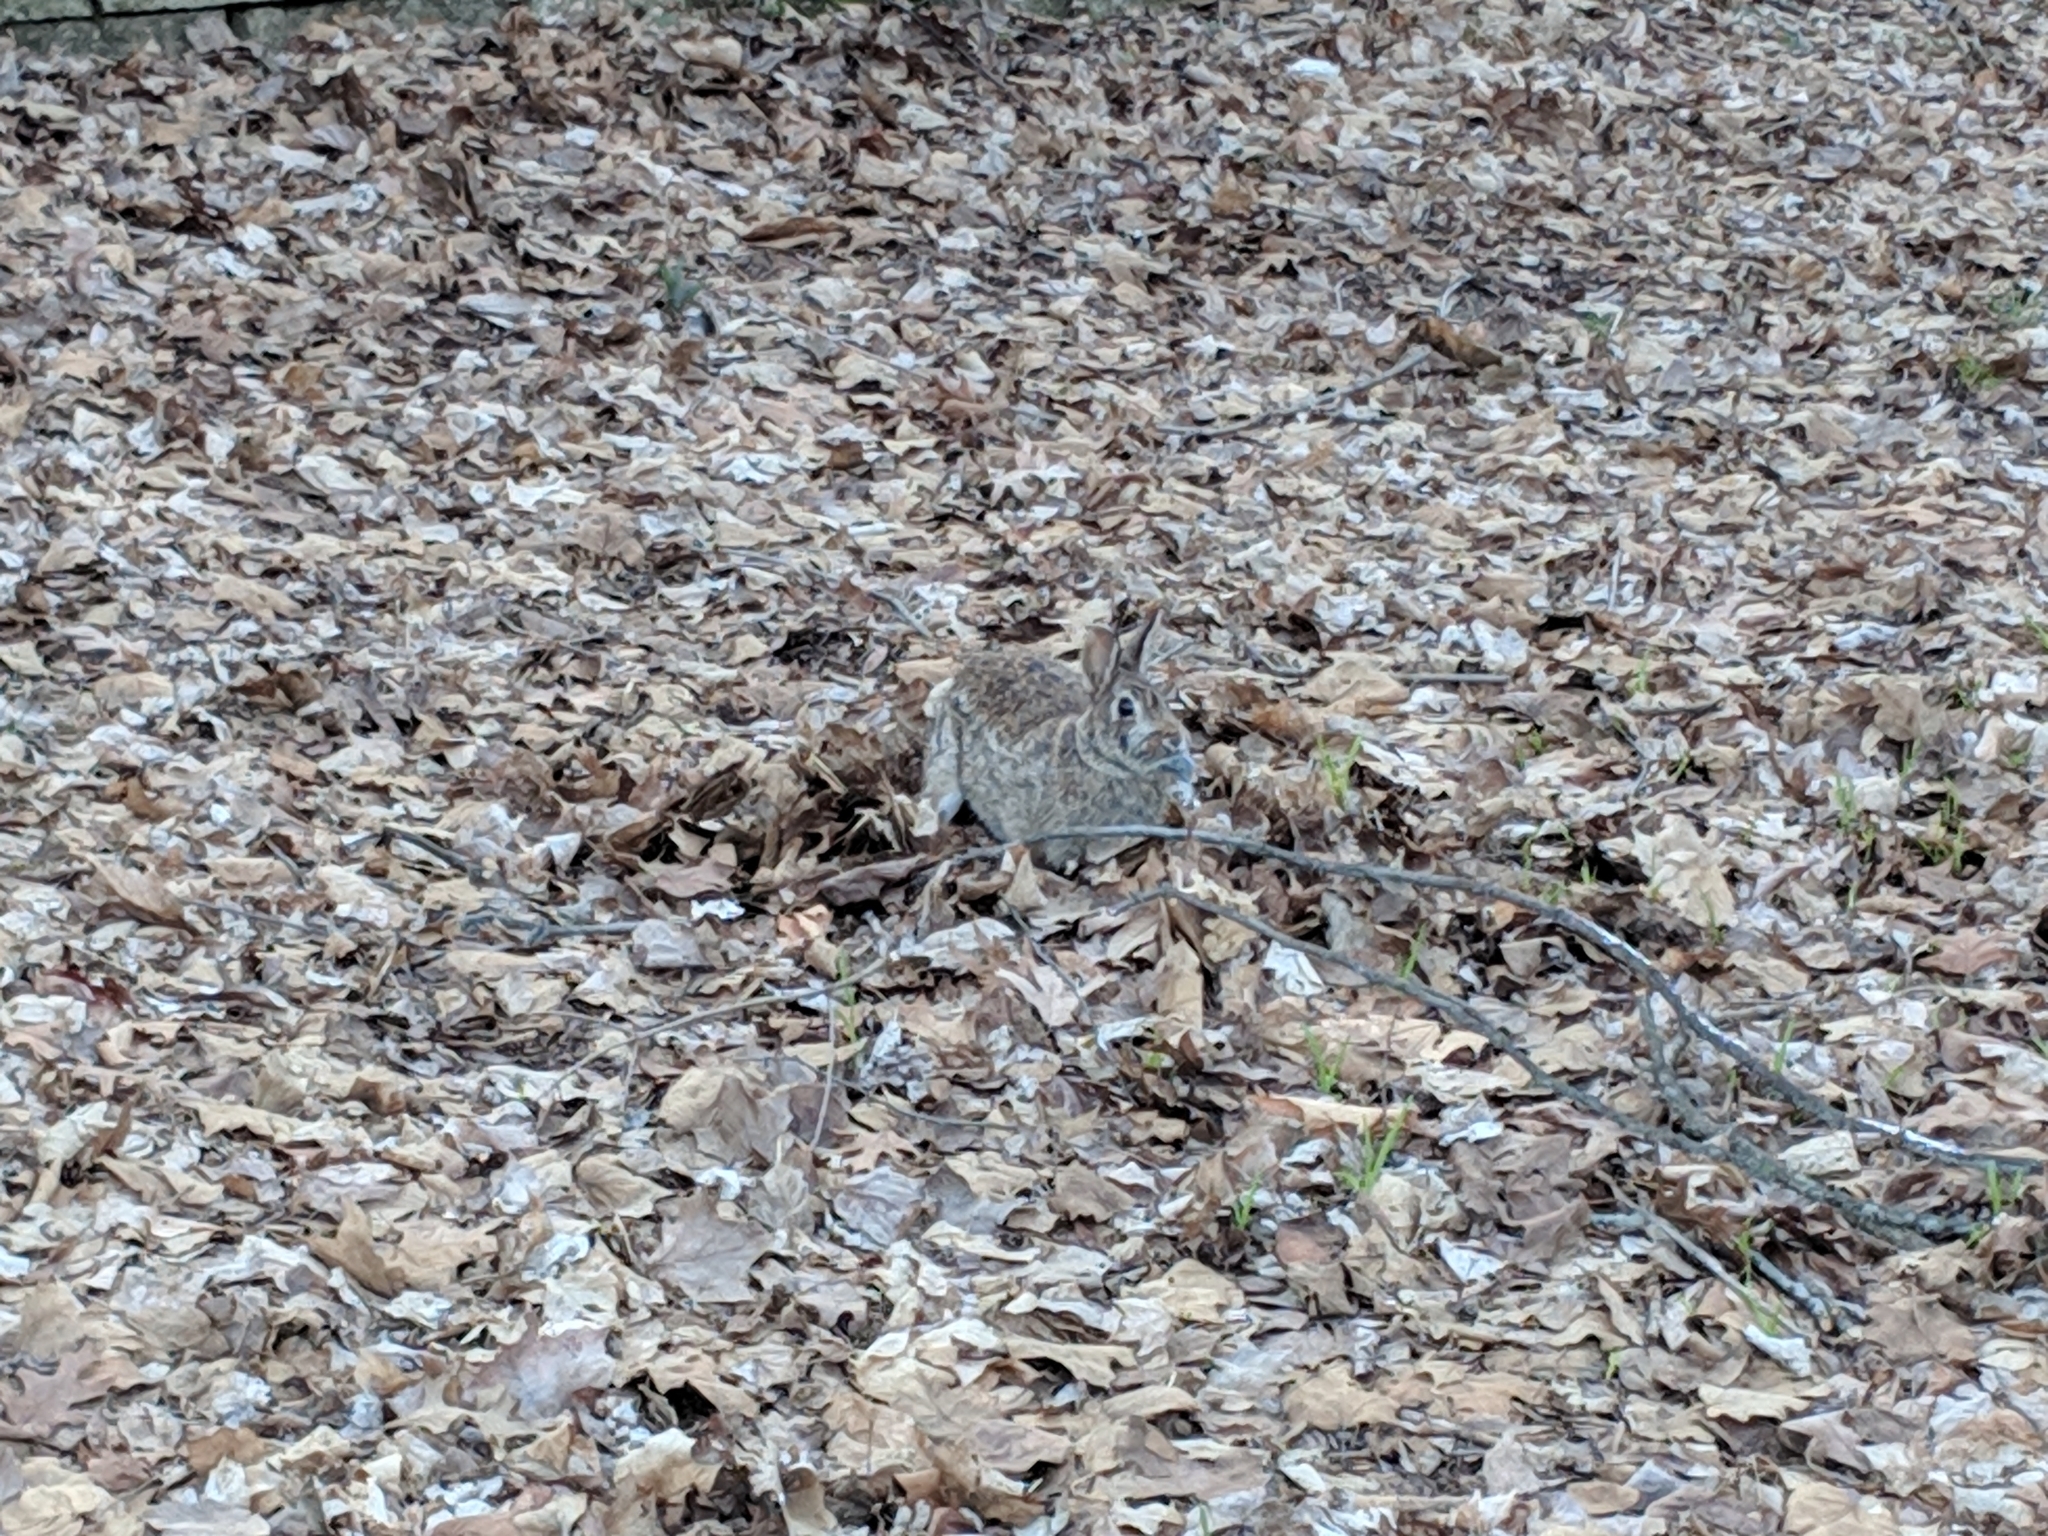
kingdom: Animalia
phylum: Chordata
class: Mammalia
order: Lagomorpha
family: Leporidae
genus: Sylvilagus
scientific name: Sylvilagus floridanus
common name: Eastern cottontail
